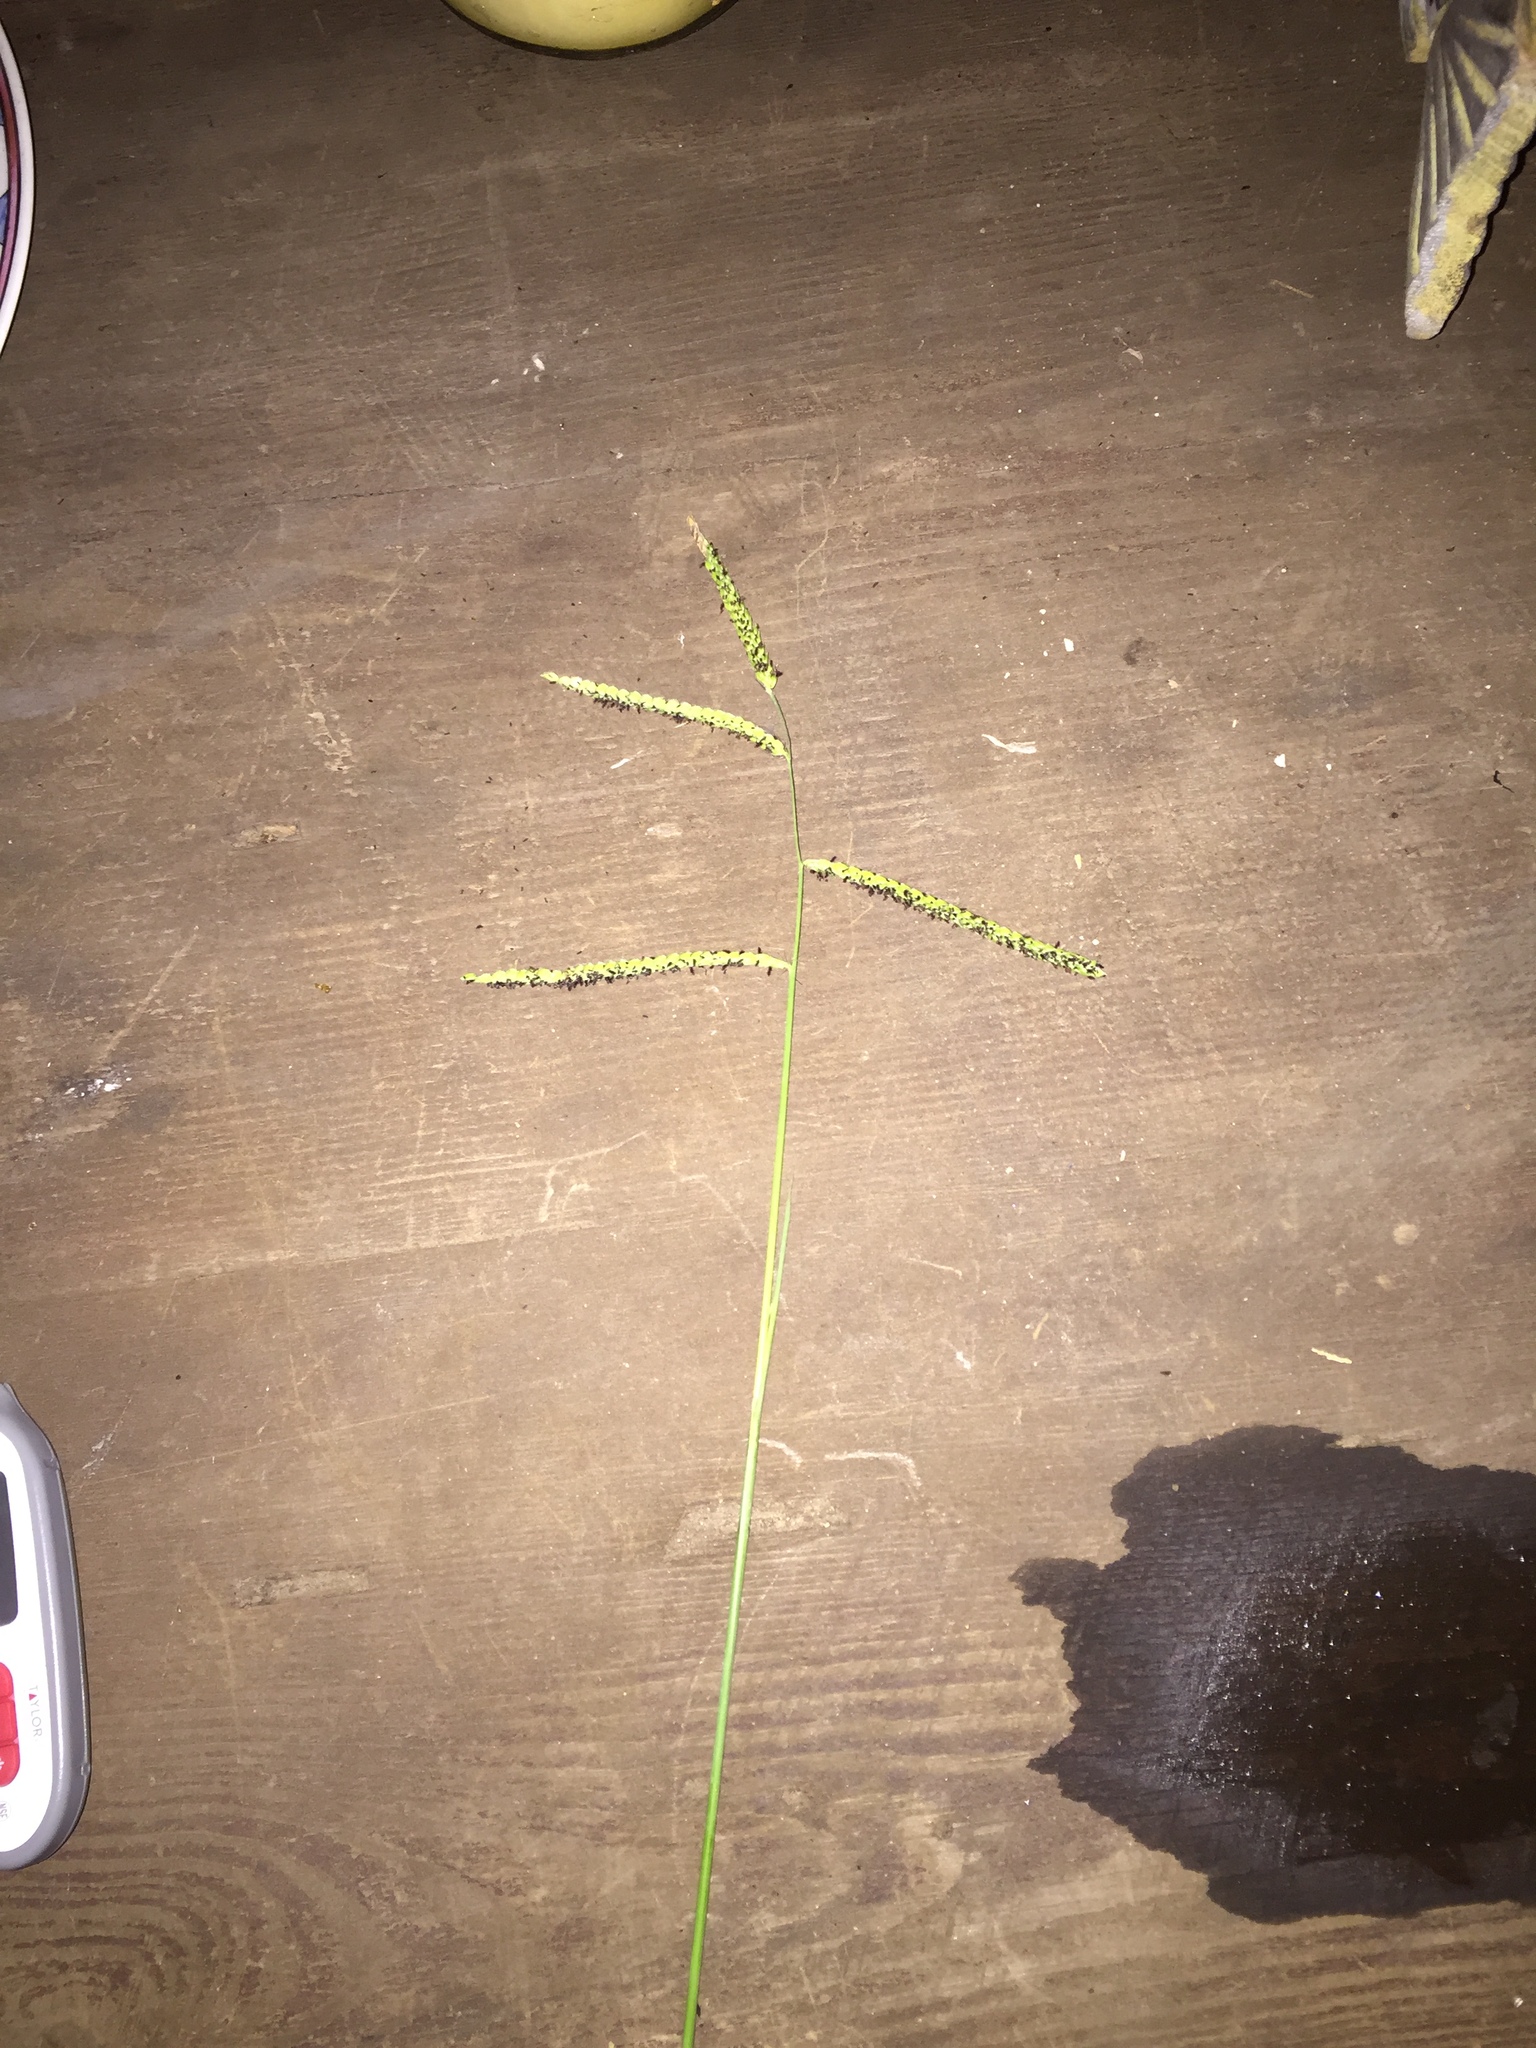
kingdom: Plantae
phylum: Tracheophyta
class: Liliopsida
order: Poales
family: Poaceae
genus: Paspalum
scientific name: Paspalum dilatatum
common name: Dallisgrass
